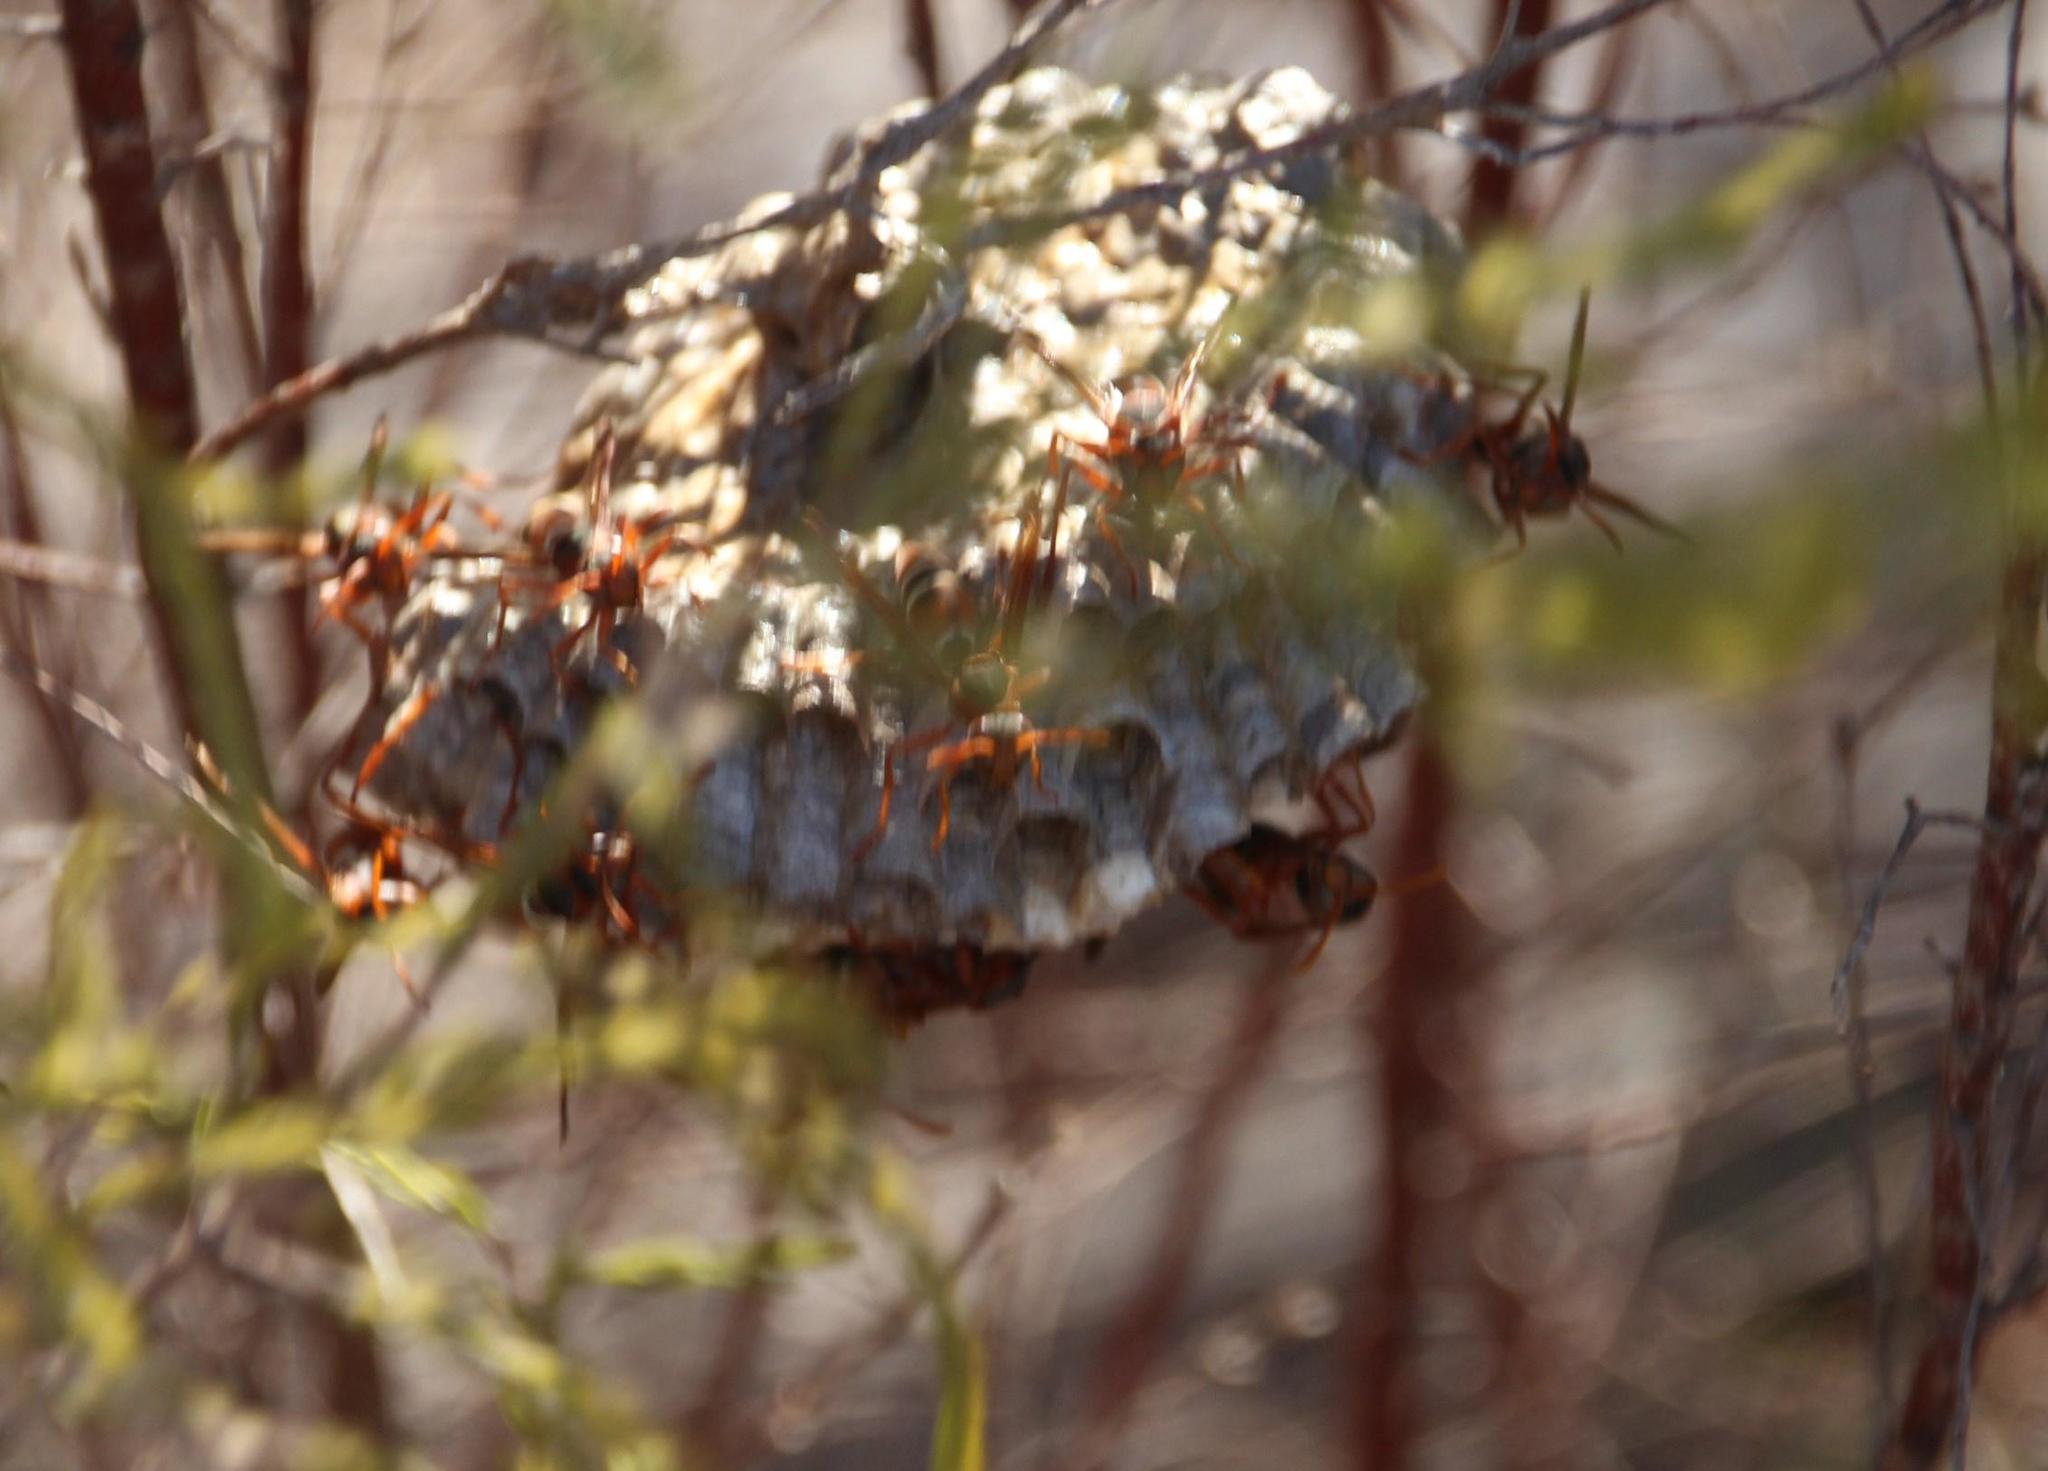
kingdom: Animalia
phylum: Arthropoda
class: Insecta
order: Hymenoptera
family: Eumenidae
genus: Polistes
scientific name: Polistes marginalis
